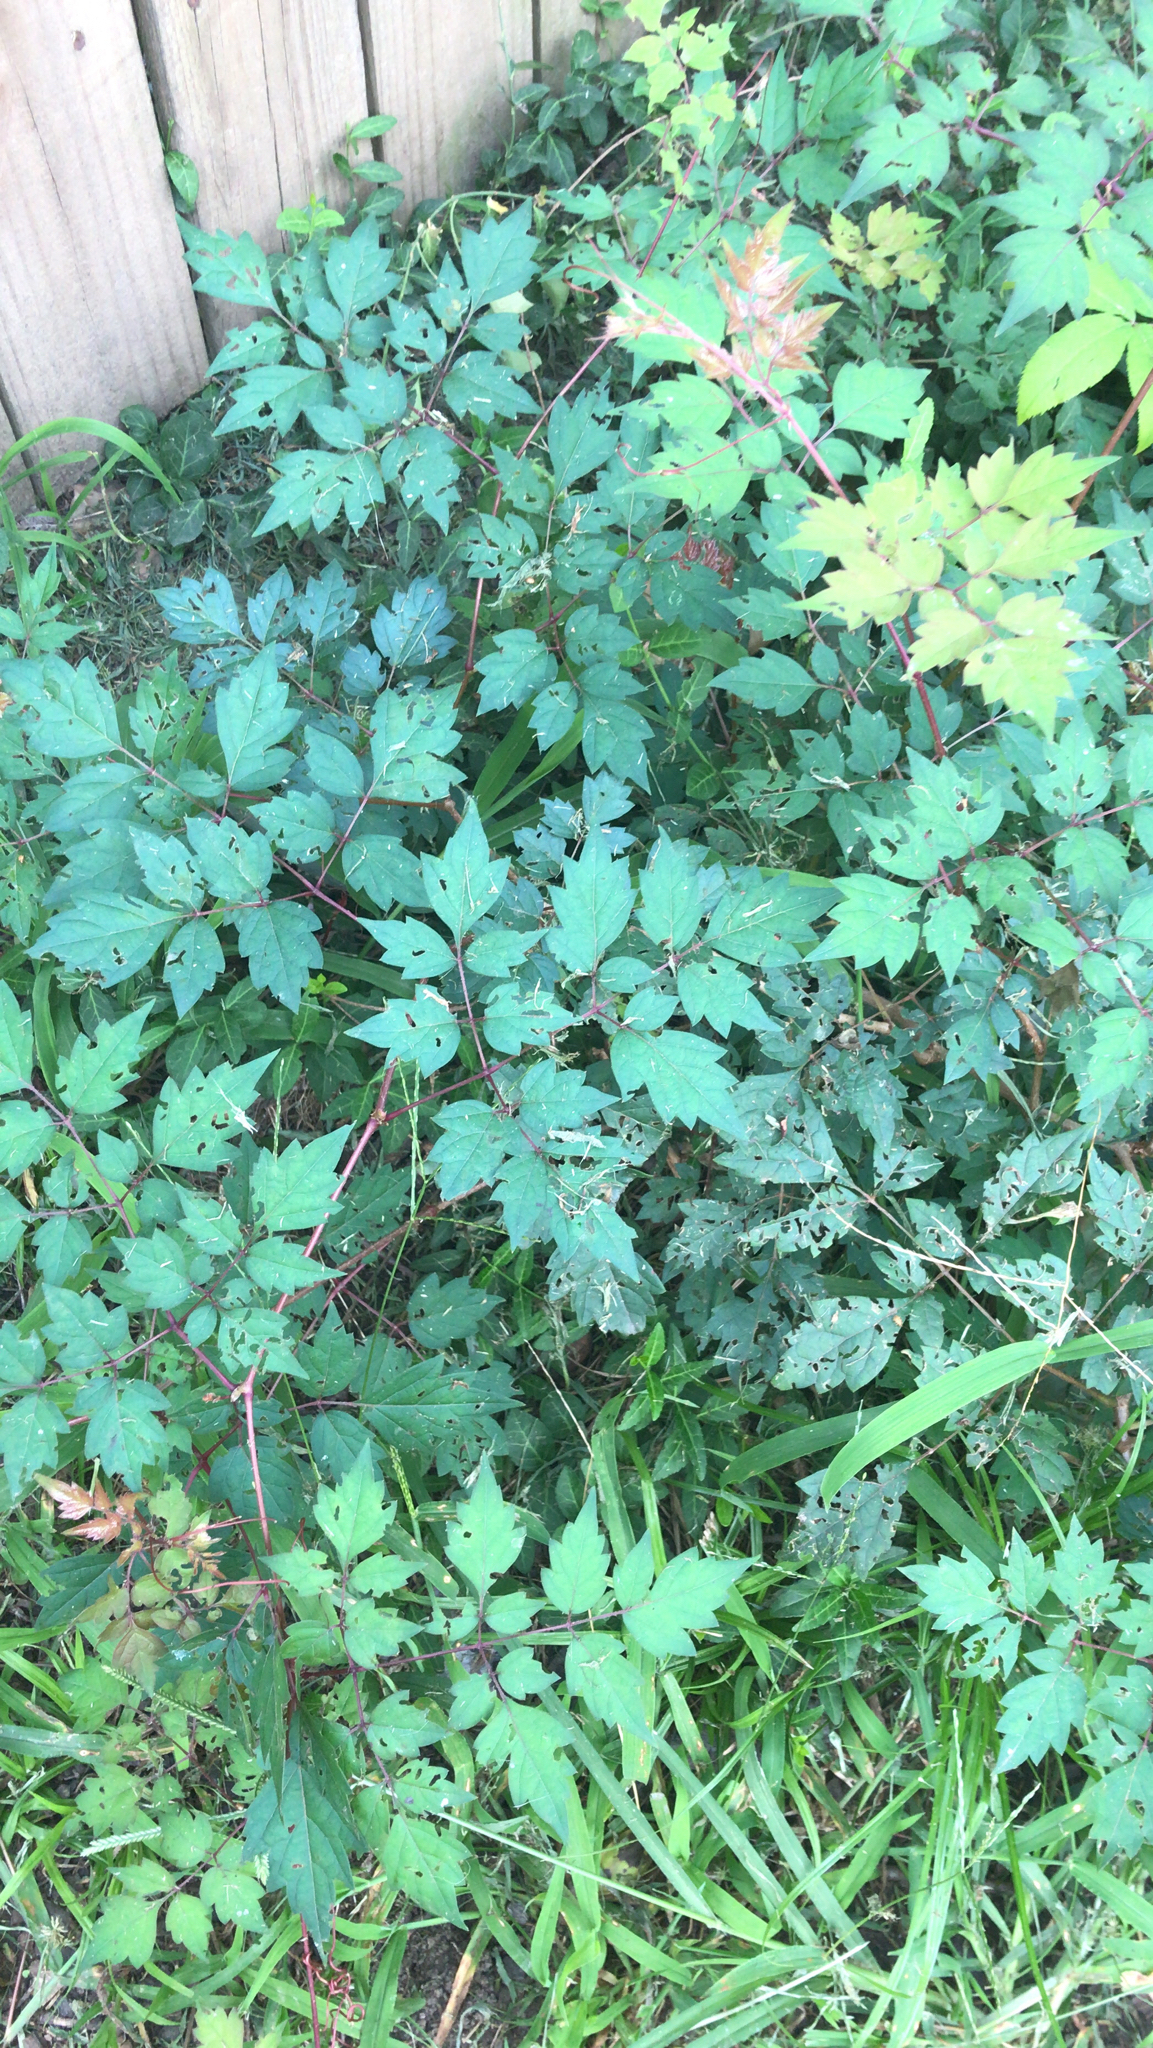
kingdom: Plantae
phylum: Tracheophyta
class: Magnoliopsida
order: Vitales
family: Vitaceae
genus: Nekemias
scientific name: Nekemias arborea
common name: Peppervine
